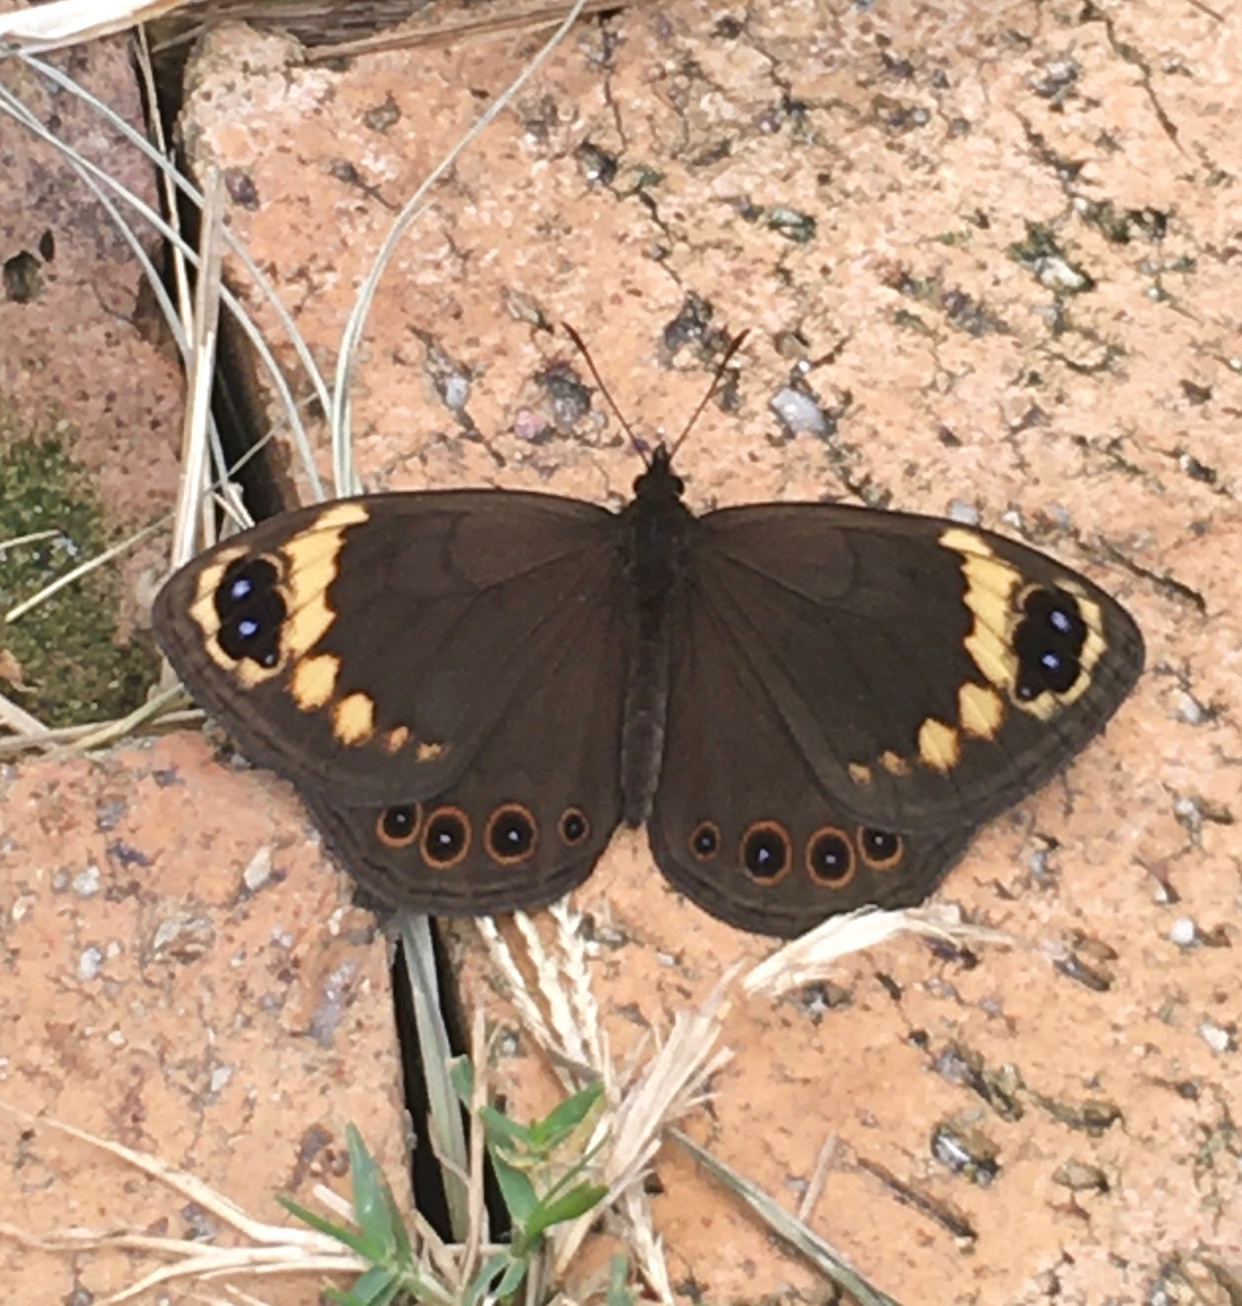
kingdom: Animalia
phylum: Arthropoda
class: Insecta
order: Lepidoptera
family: Nymphalidae
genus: Dira
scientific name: Dira clytus
